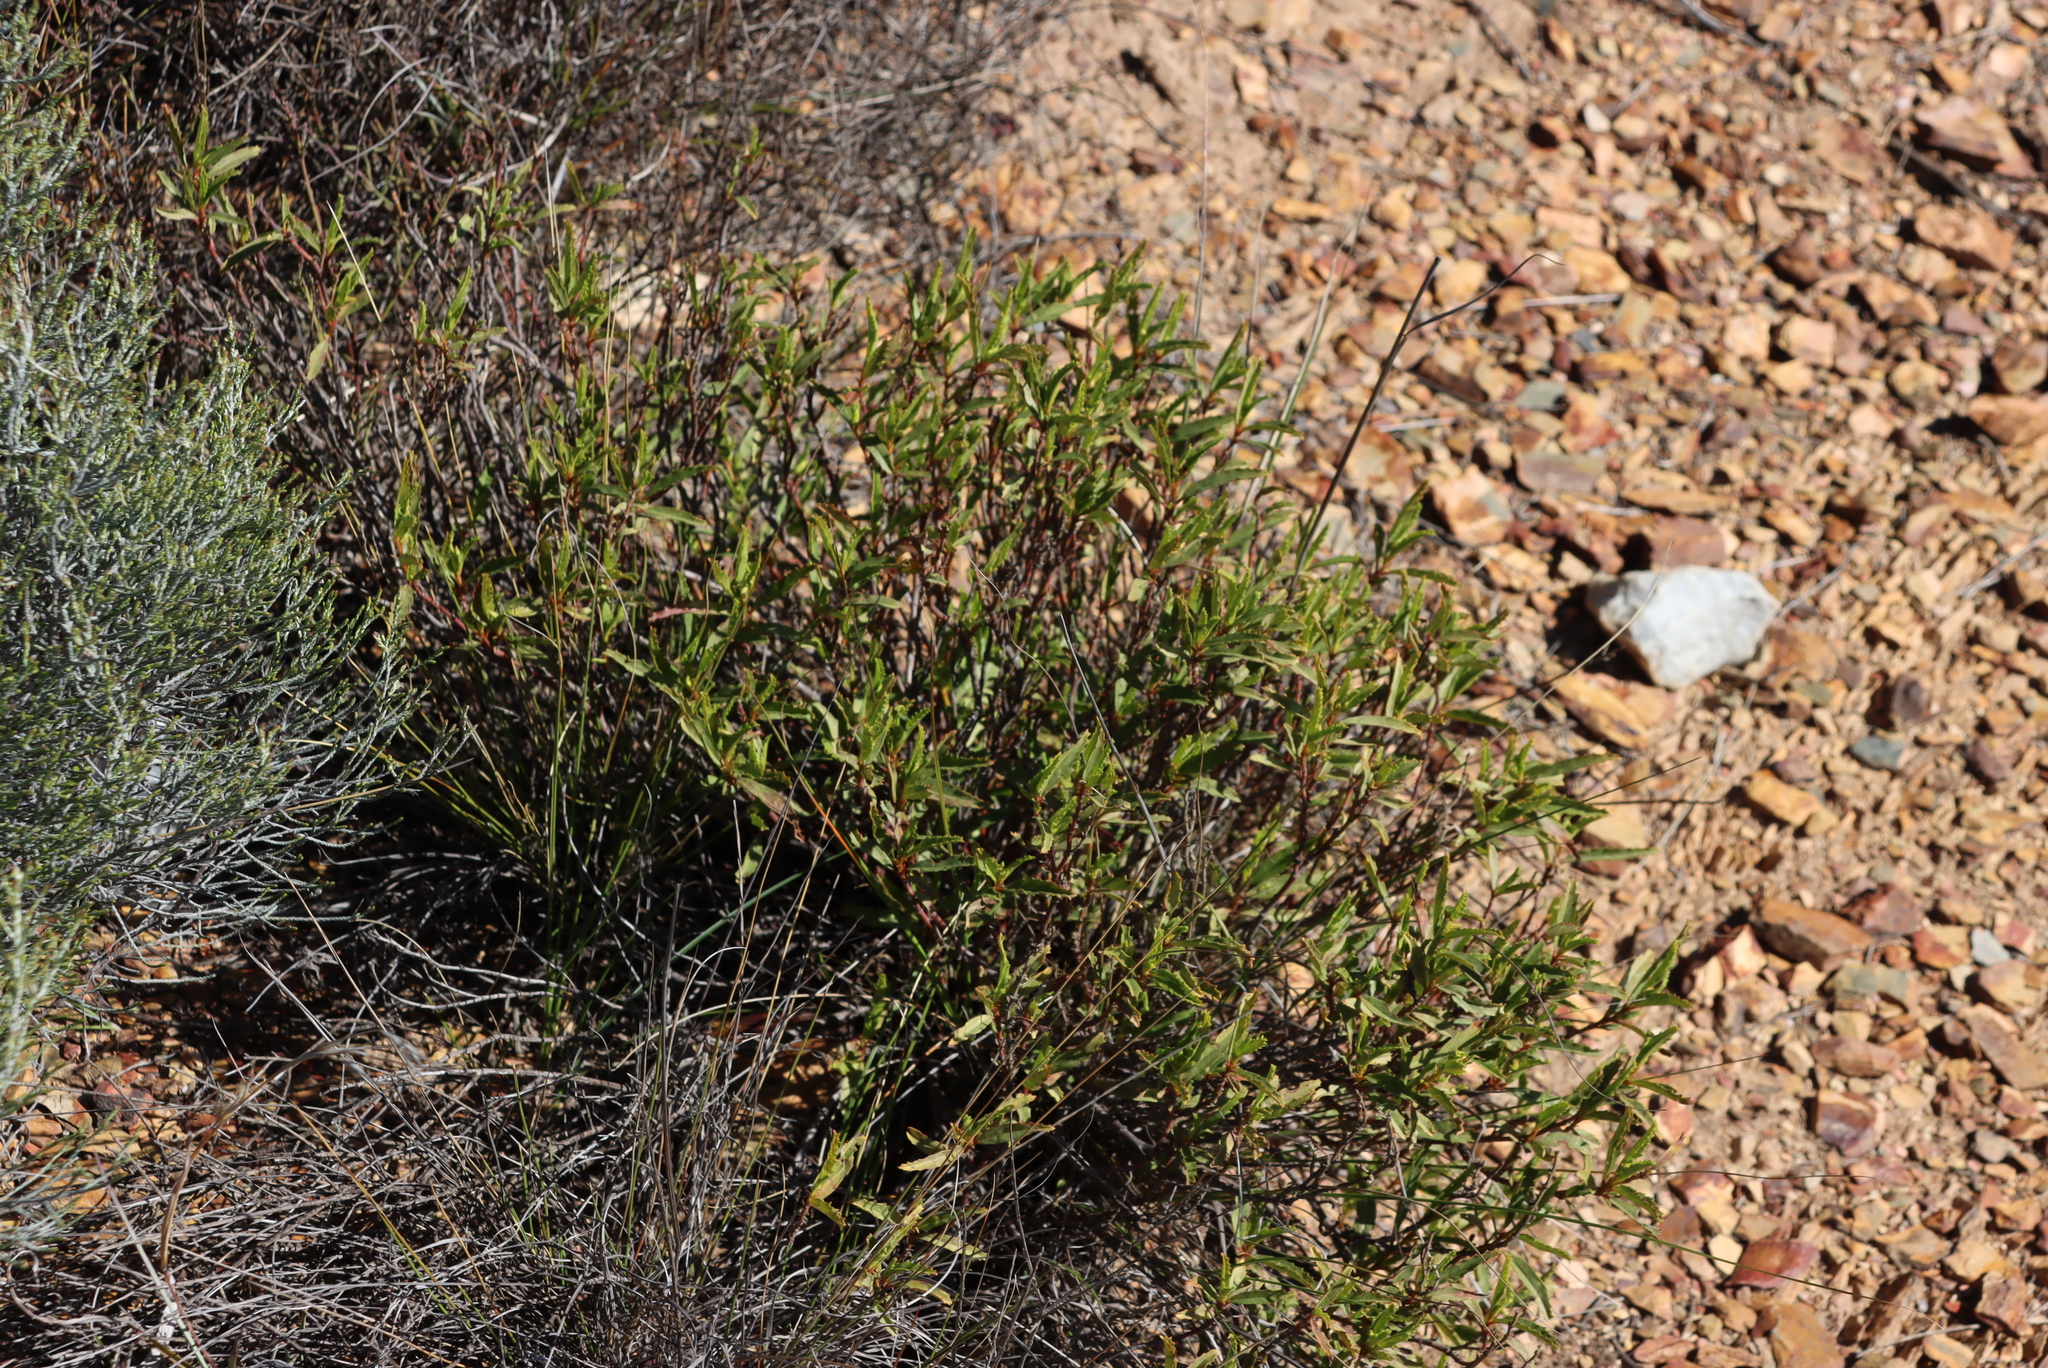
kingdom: Plantae
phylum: Tracheophyta
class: Magnoliopsida
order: Malvales
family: Malvaceae
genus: Hermannia
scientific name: Hermannia saccifera
